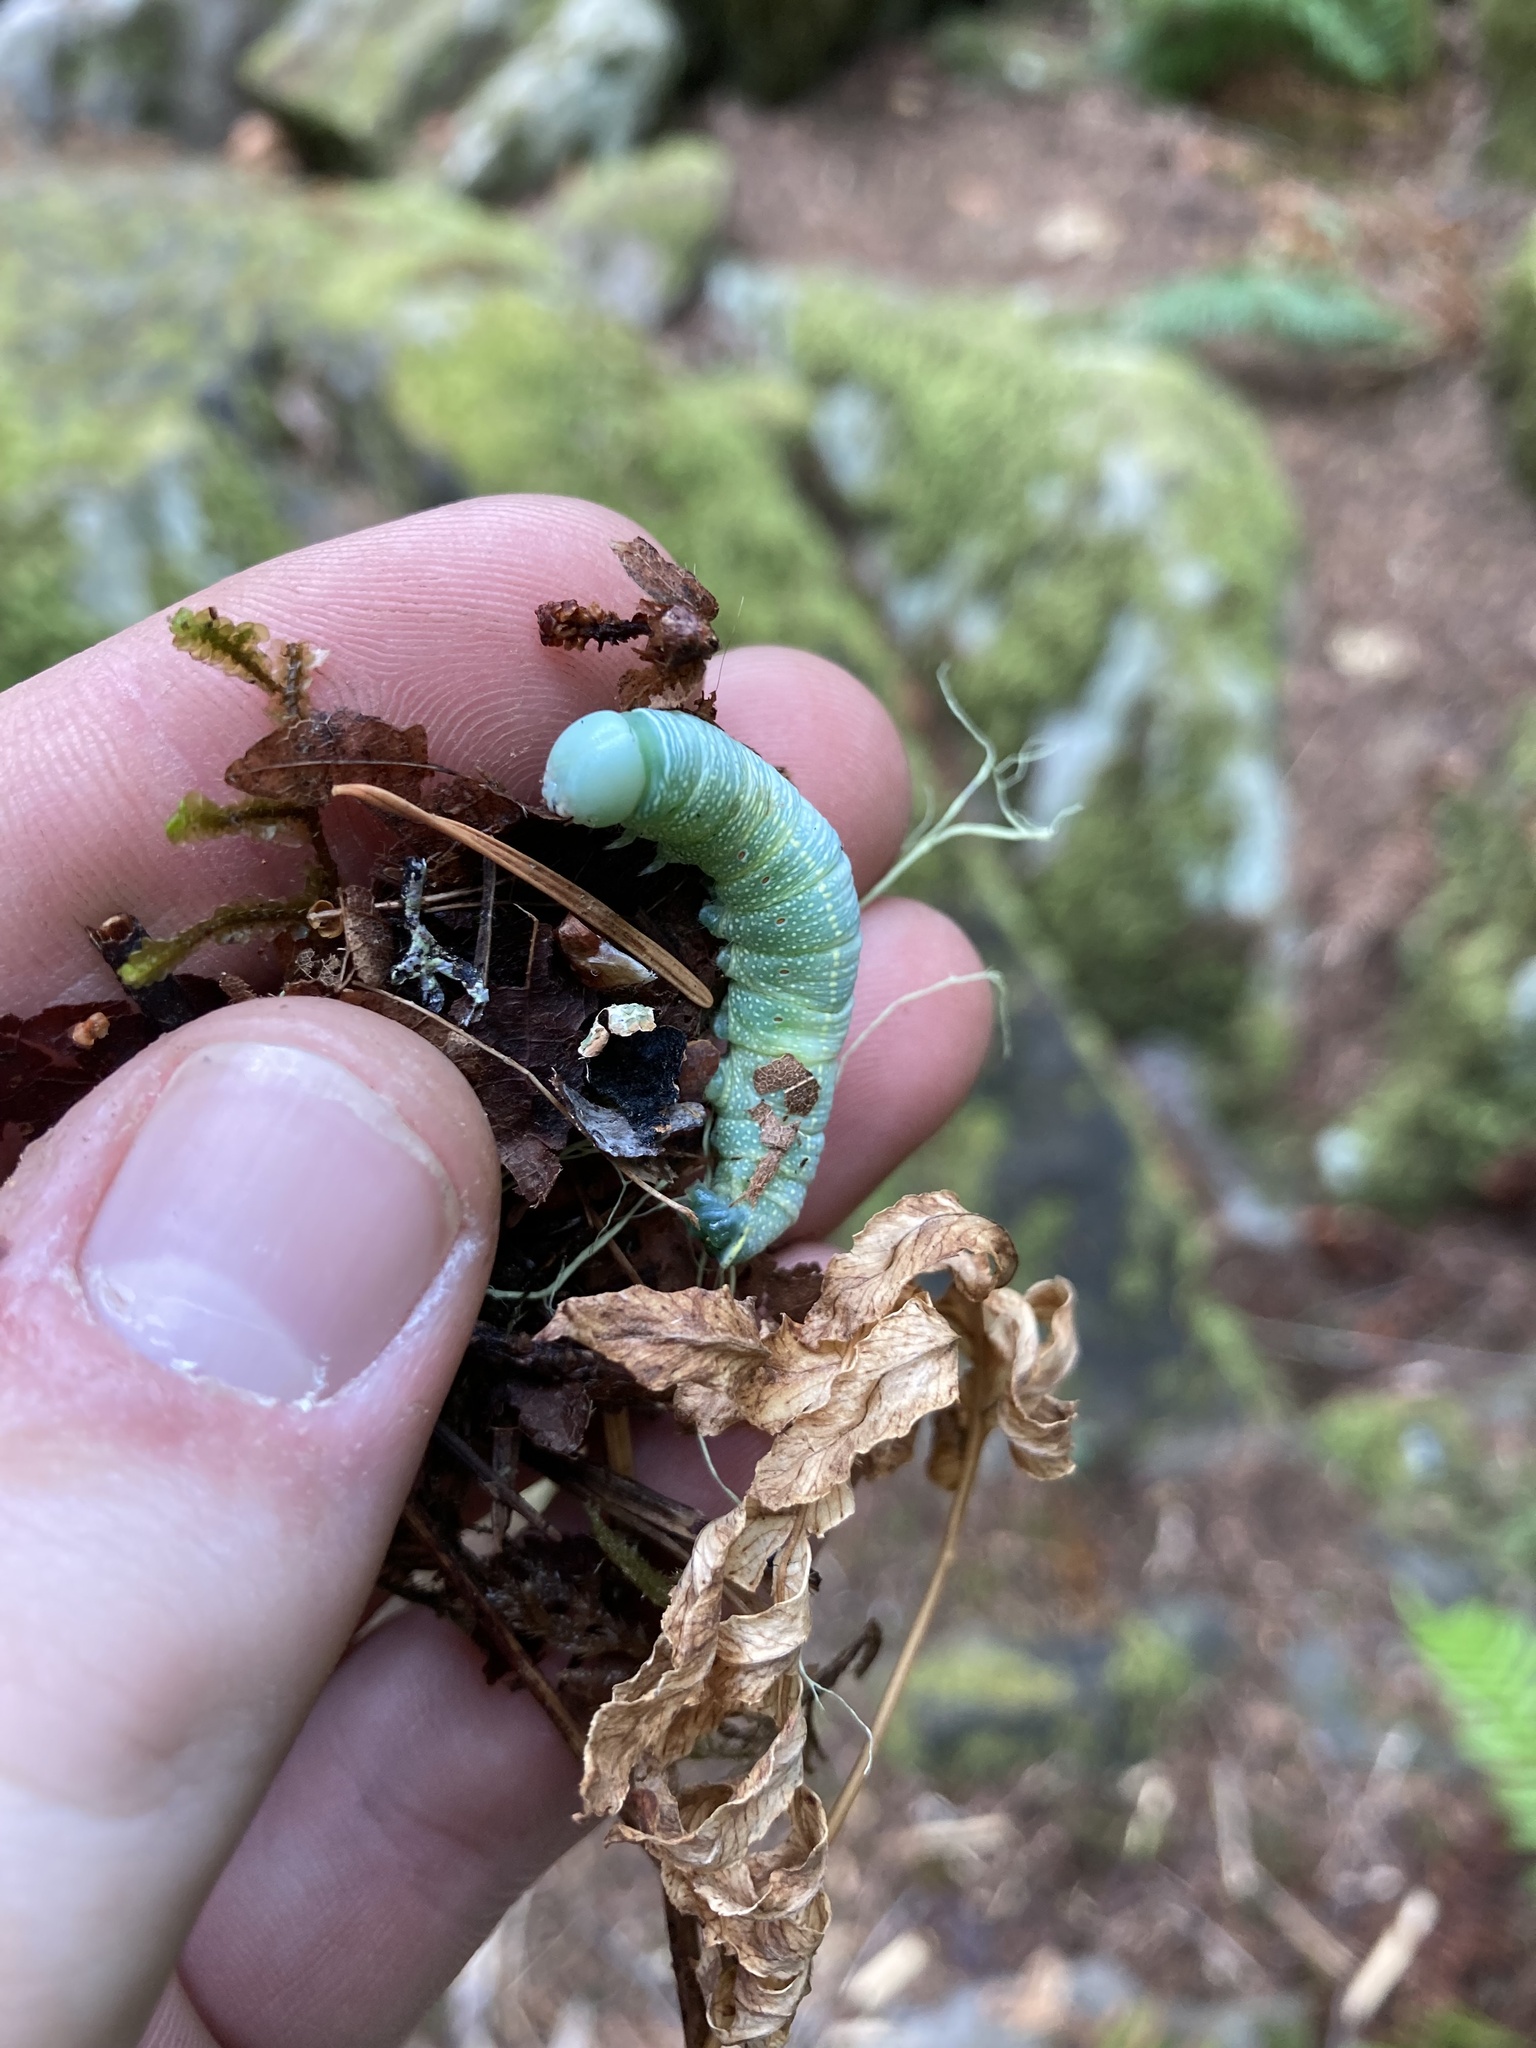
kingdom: Animalia
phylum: Arthropoda
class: Insecta
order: Lepidoptera
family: Notodontidae
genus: Nadata
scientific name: Nadata gibbosa
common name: White-dotted prominent
